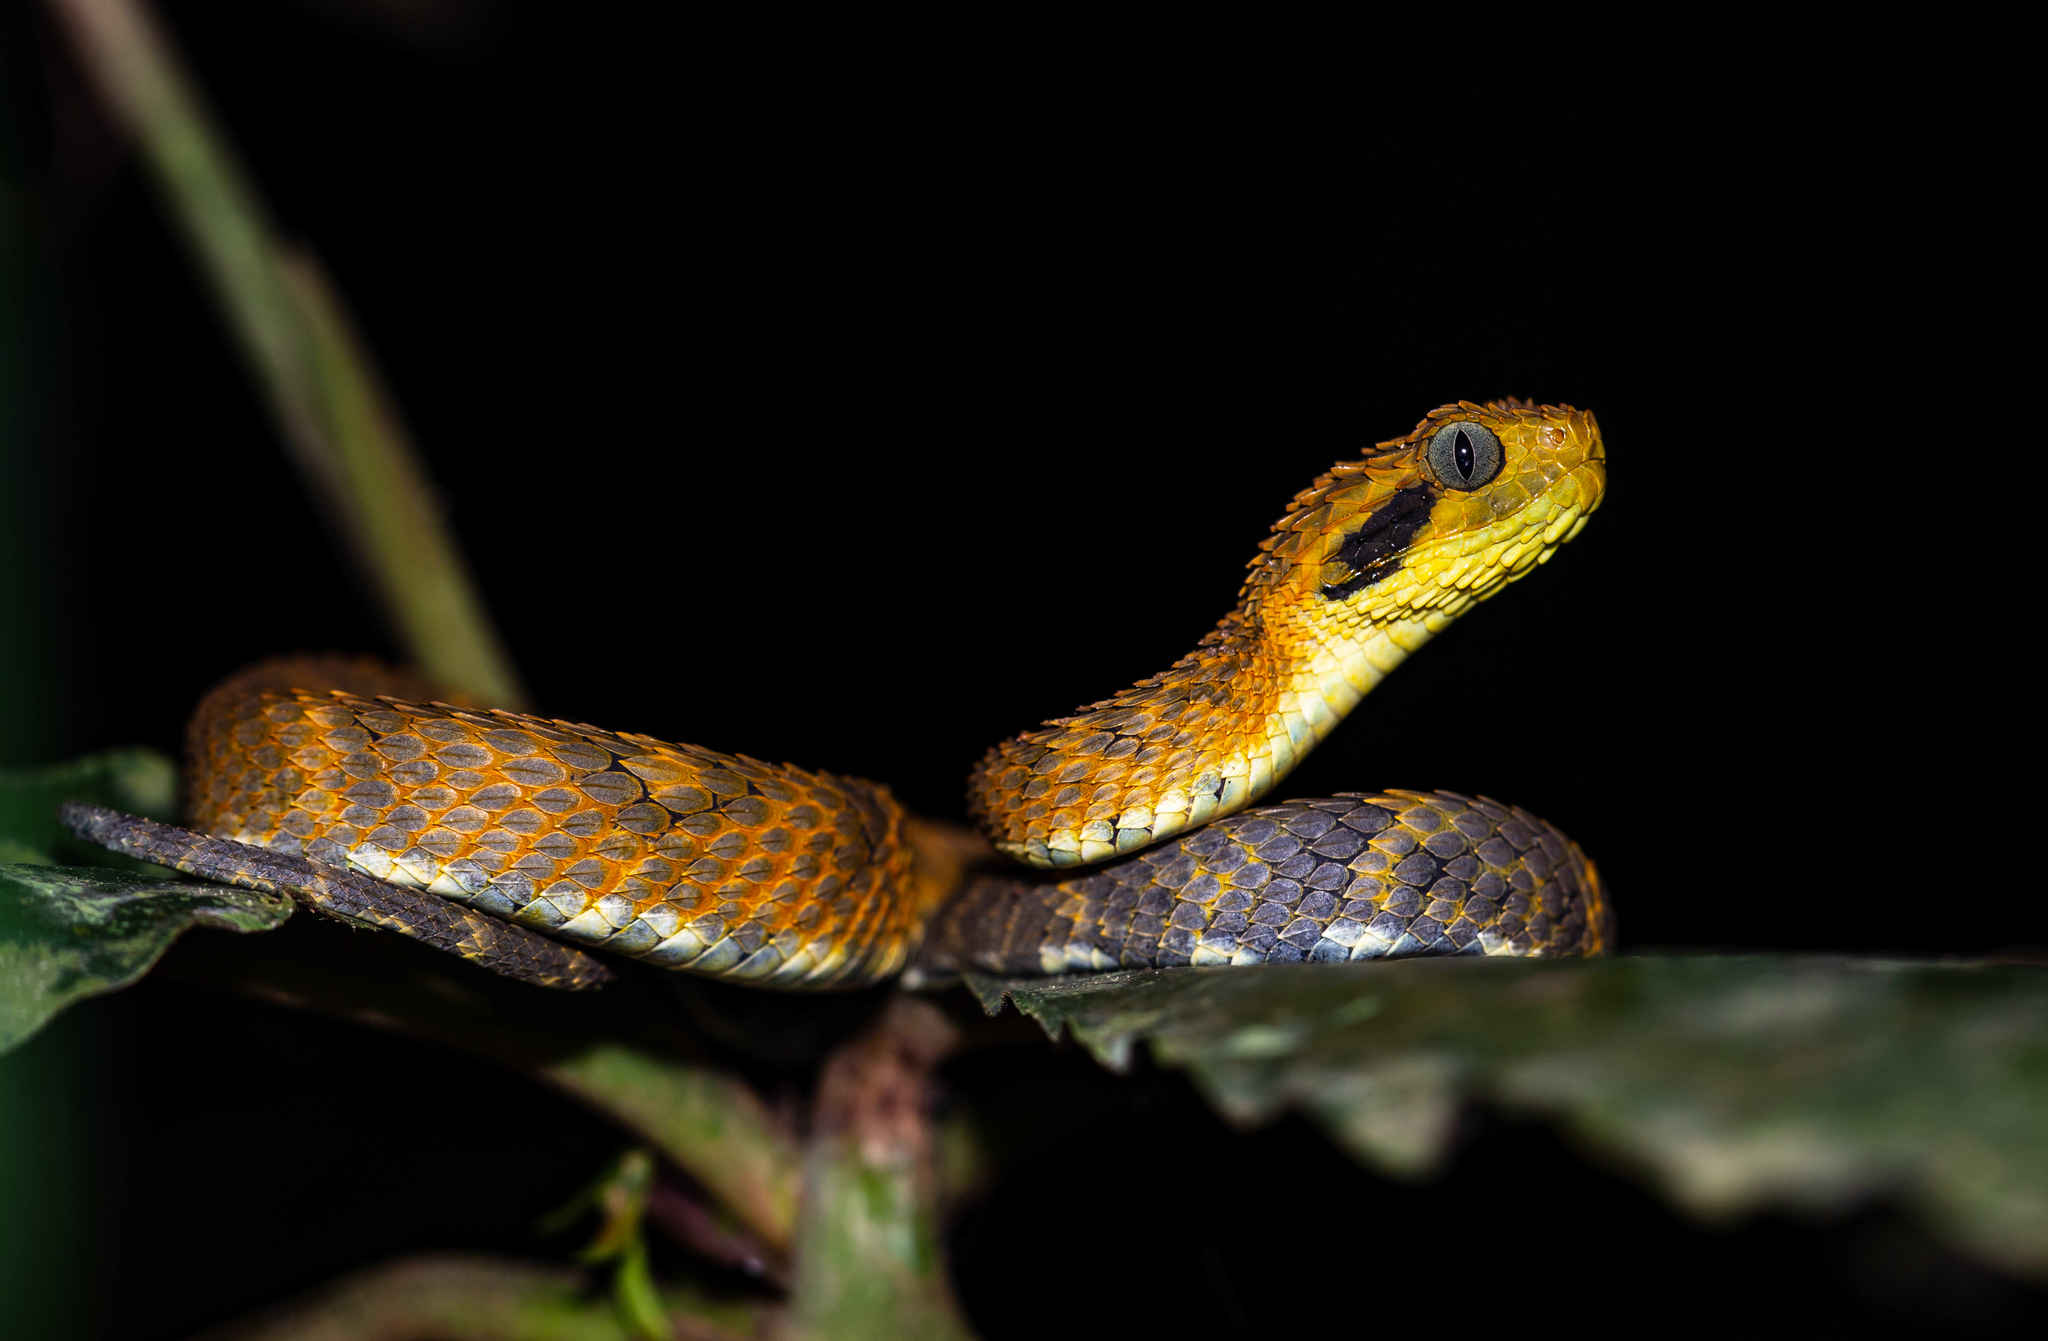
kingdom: Animalia
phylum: Chordata
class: Squamata
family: Viperidae
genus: Atheris
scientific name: Atheris broadleyi
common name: Broadley's bush viper
